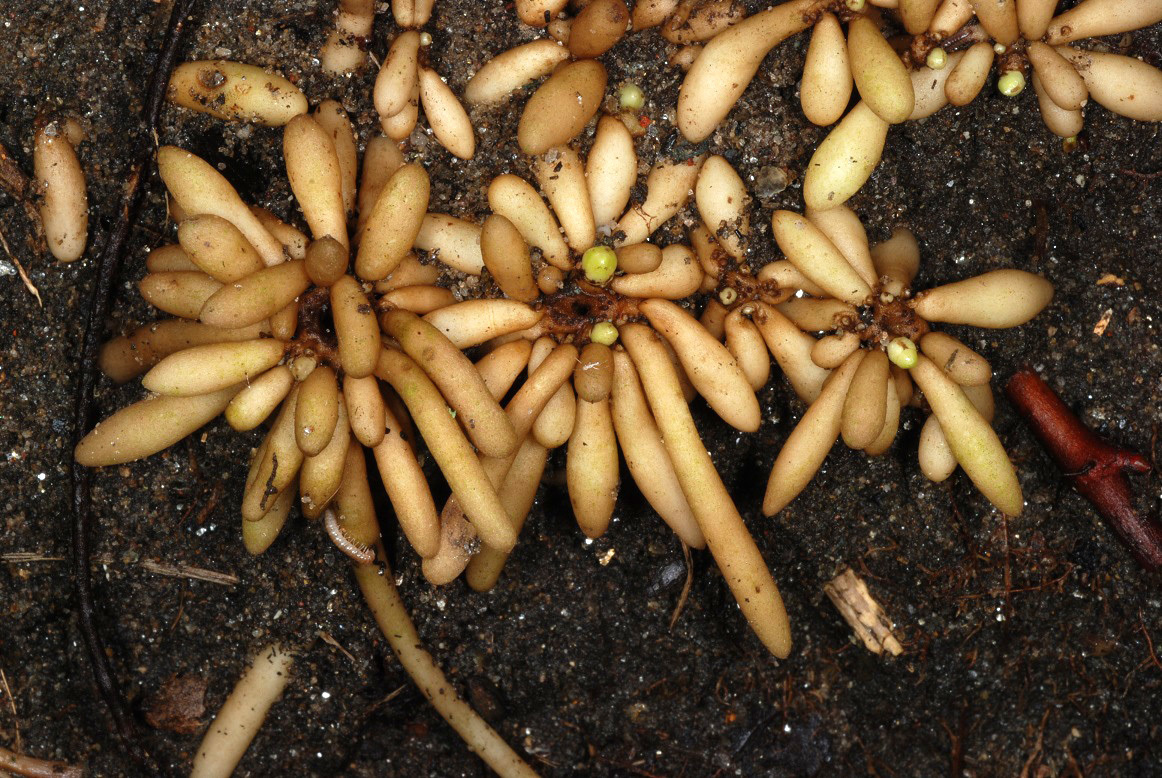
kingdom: Plantae
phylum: Tracheophyta
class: Magnoliopsida
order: Ranunculales
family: Ranunculaceae
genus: Ficaria
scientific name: Ficaria verna
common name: Lesser celandine
